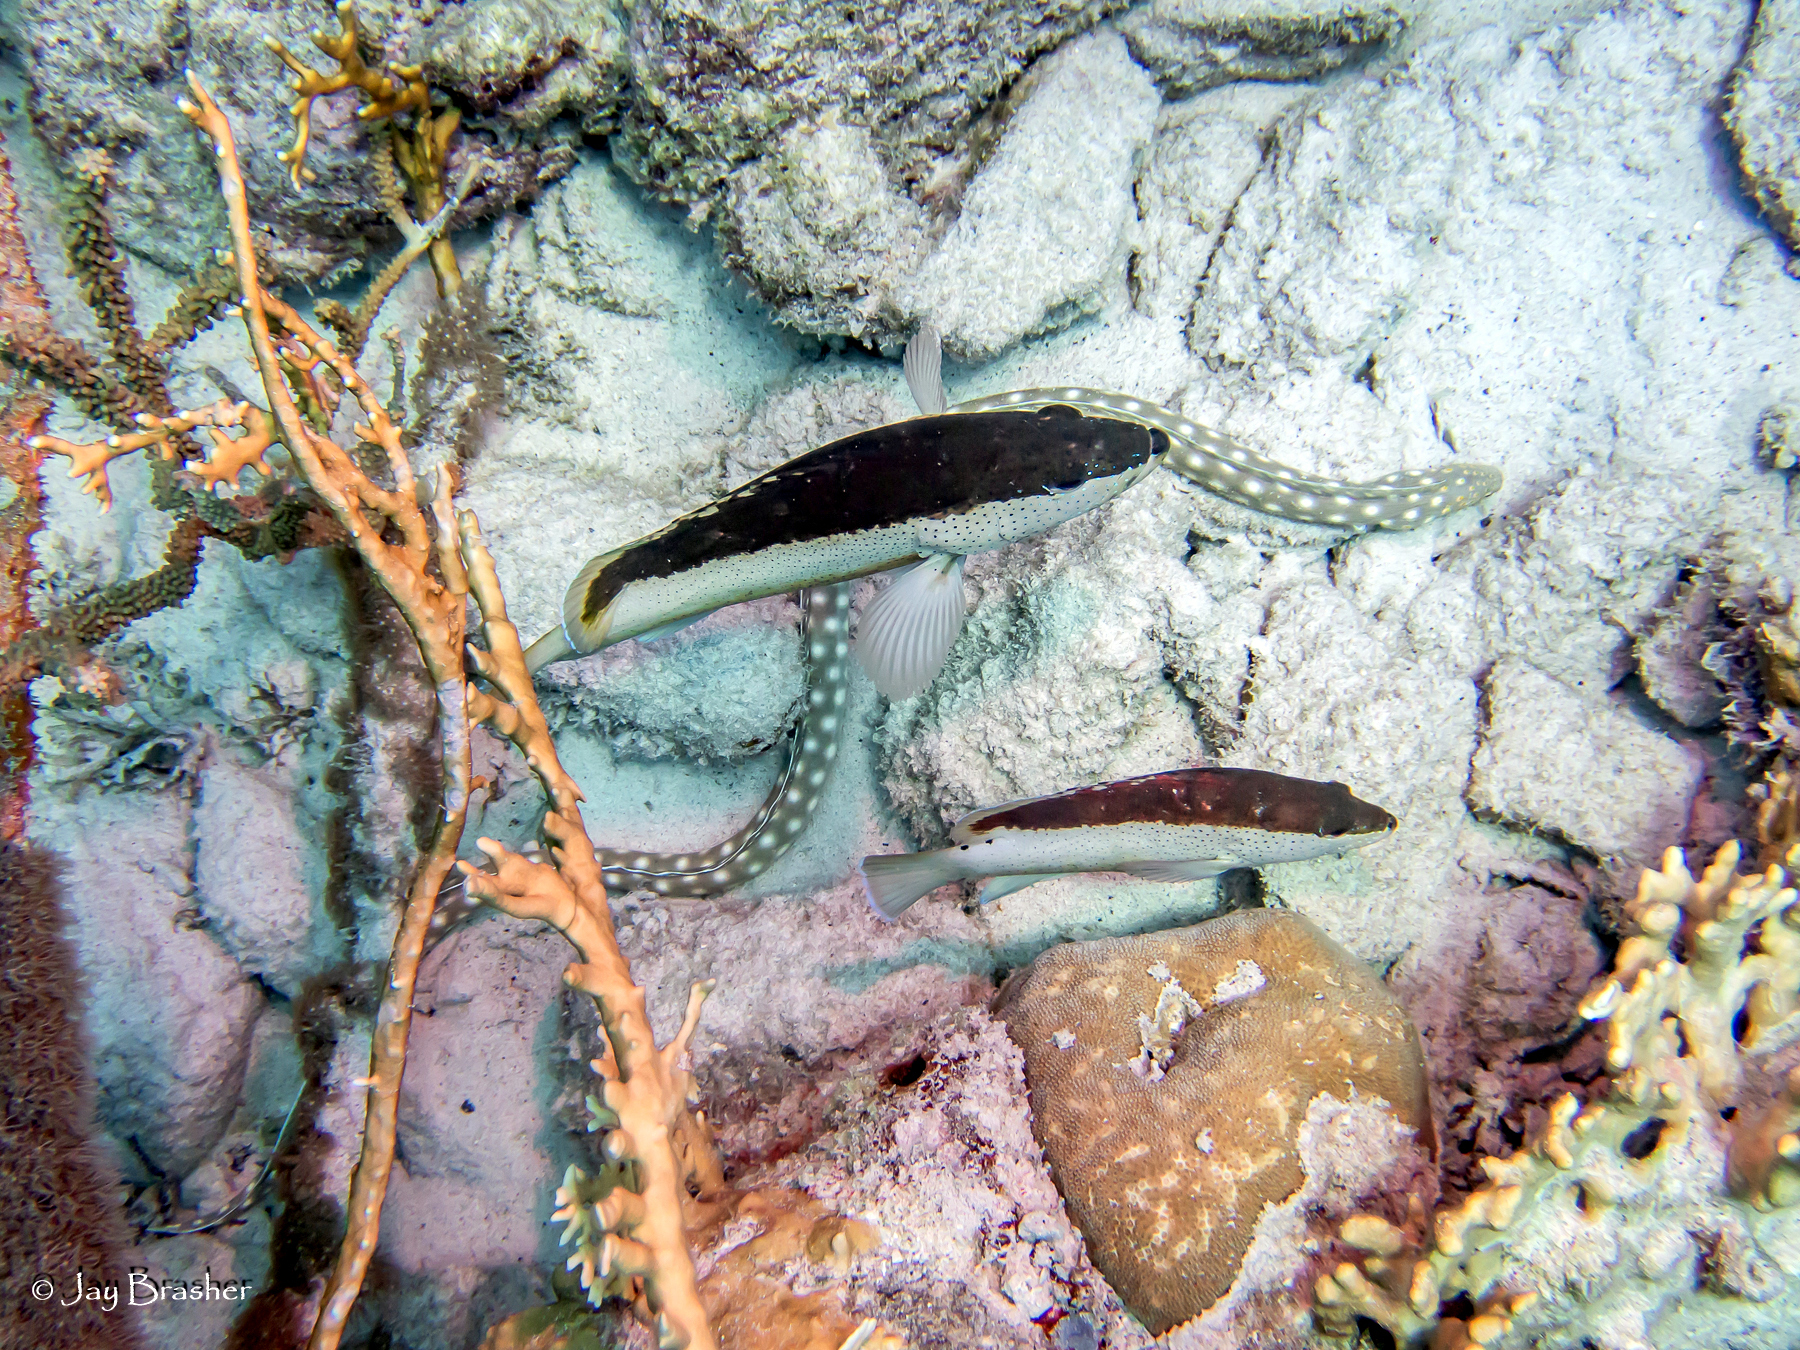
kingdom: Animalia
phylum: Chordata
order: Perciformes
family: Serranidae
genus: Cephalopholis
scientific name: Cephalopholis fulva
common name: Butterfish
